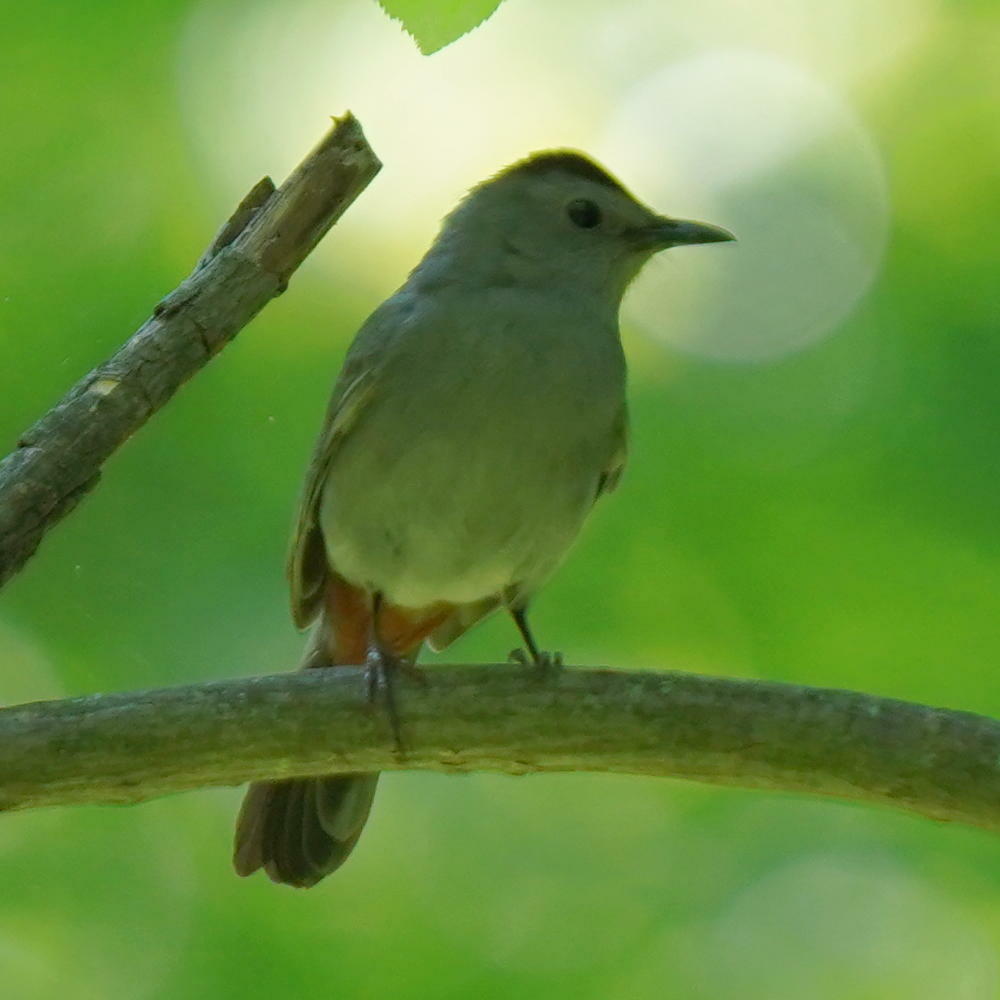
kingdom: Animalia
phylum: Chordata
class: Aves
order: Passeriformes
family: Mimidae
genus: Dumetella
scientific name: Dumetella carolinensis
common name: Gray catbird
